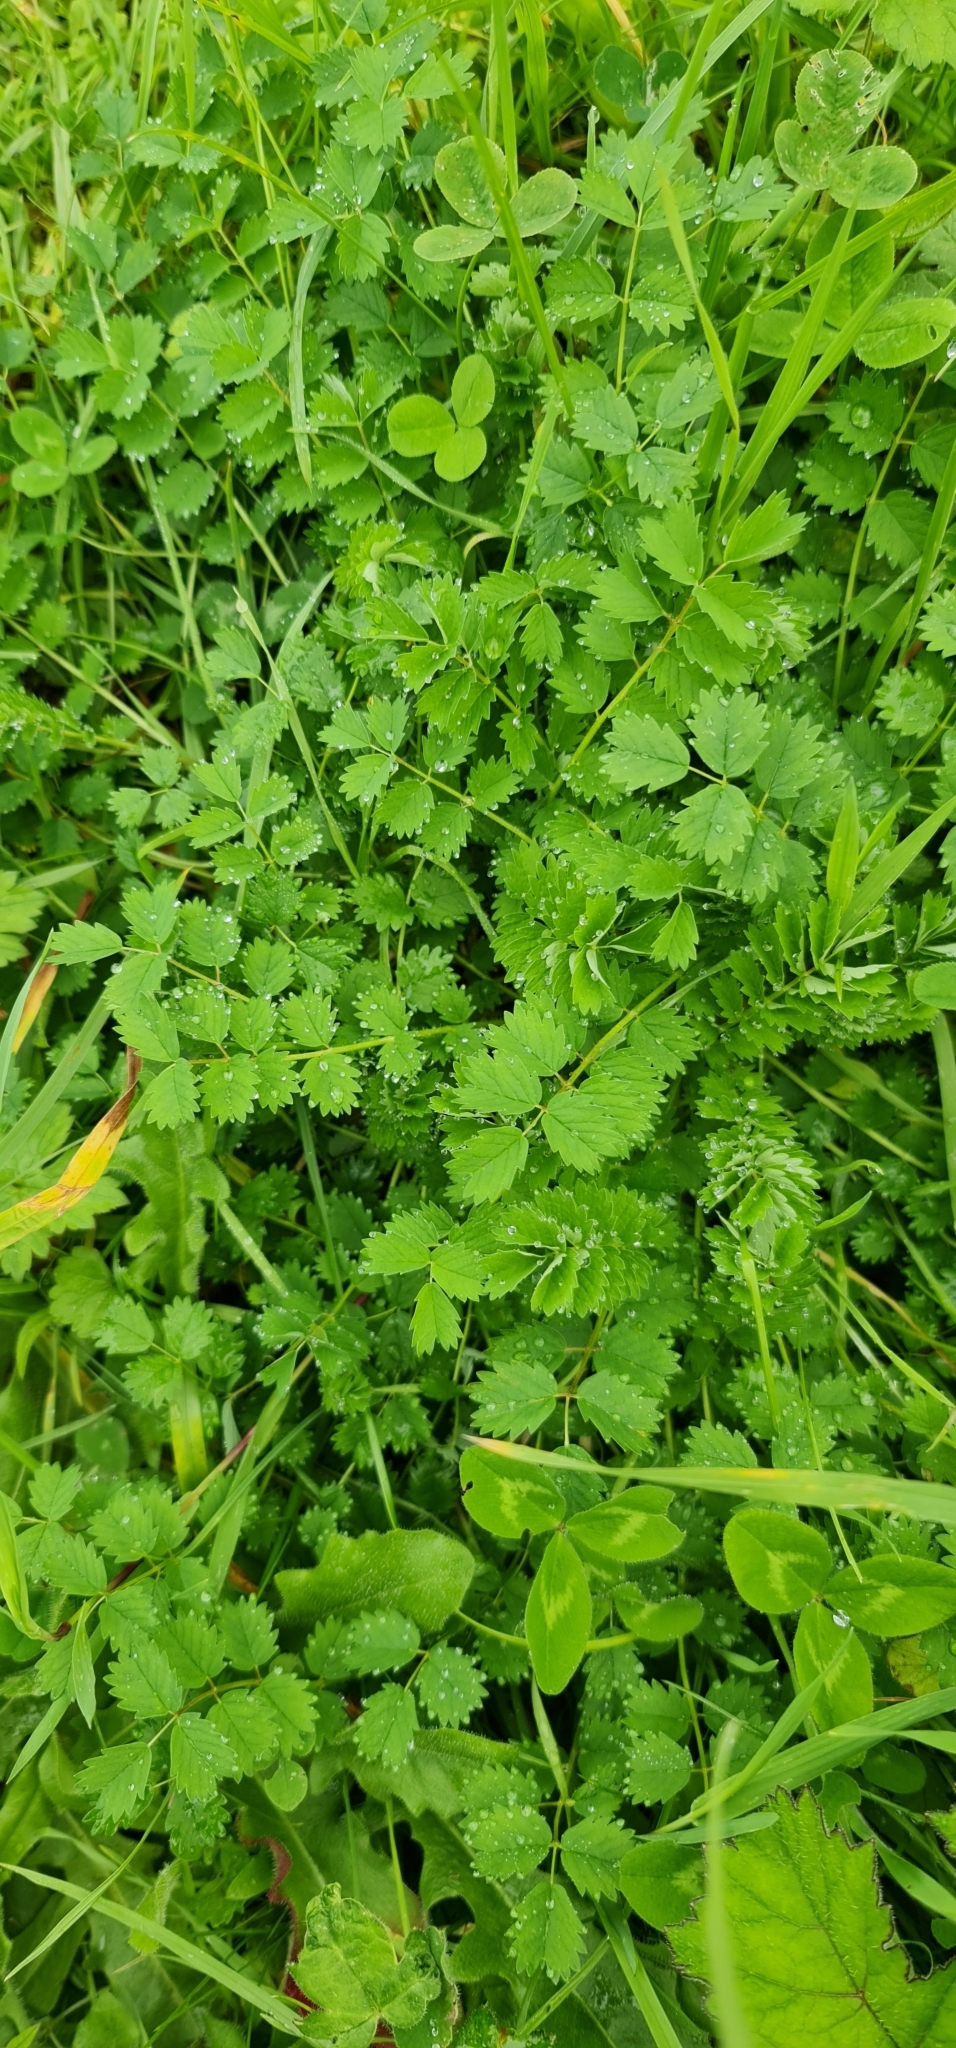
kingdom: Plantae
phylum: Tracheophyta
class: Magnoliopsida
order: Rosales
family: Rosaceae
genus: Poterium
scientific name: Poterium sanguisorba
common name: Salad burnet
